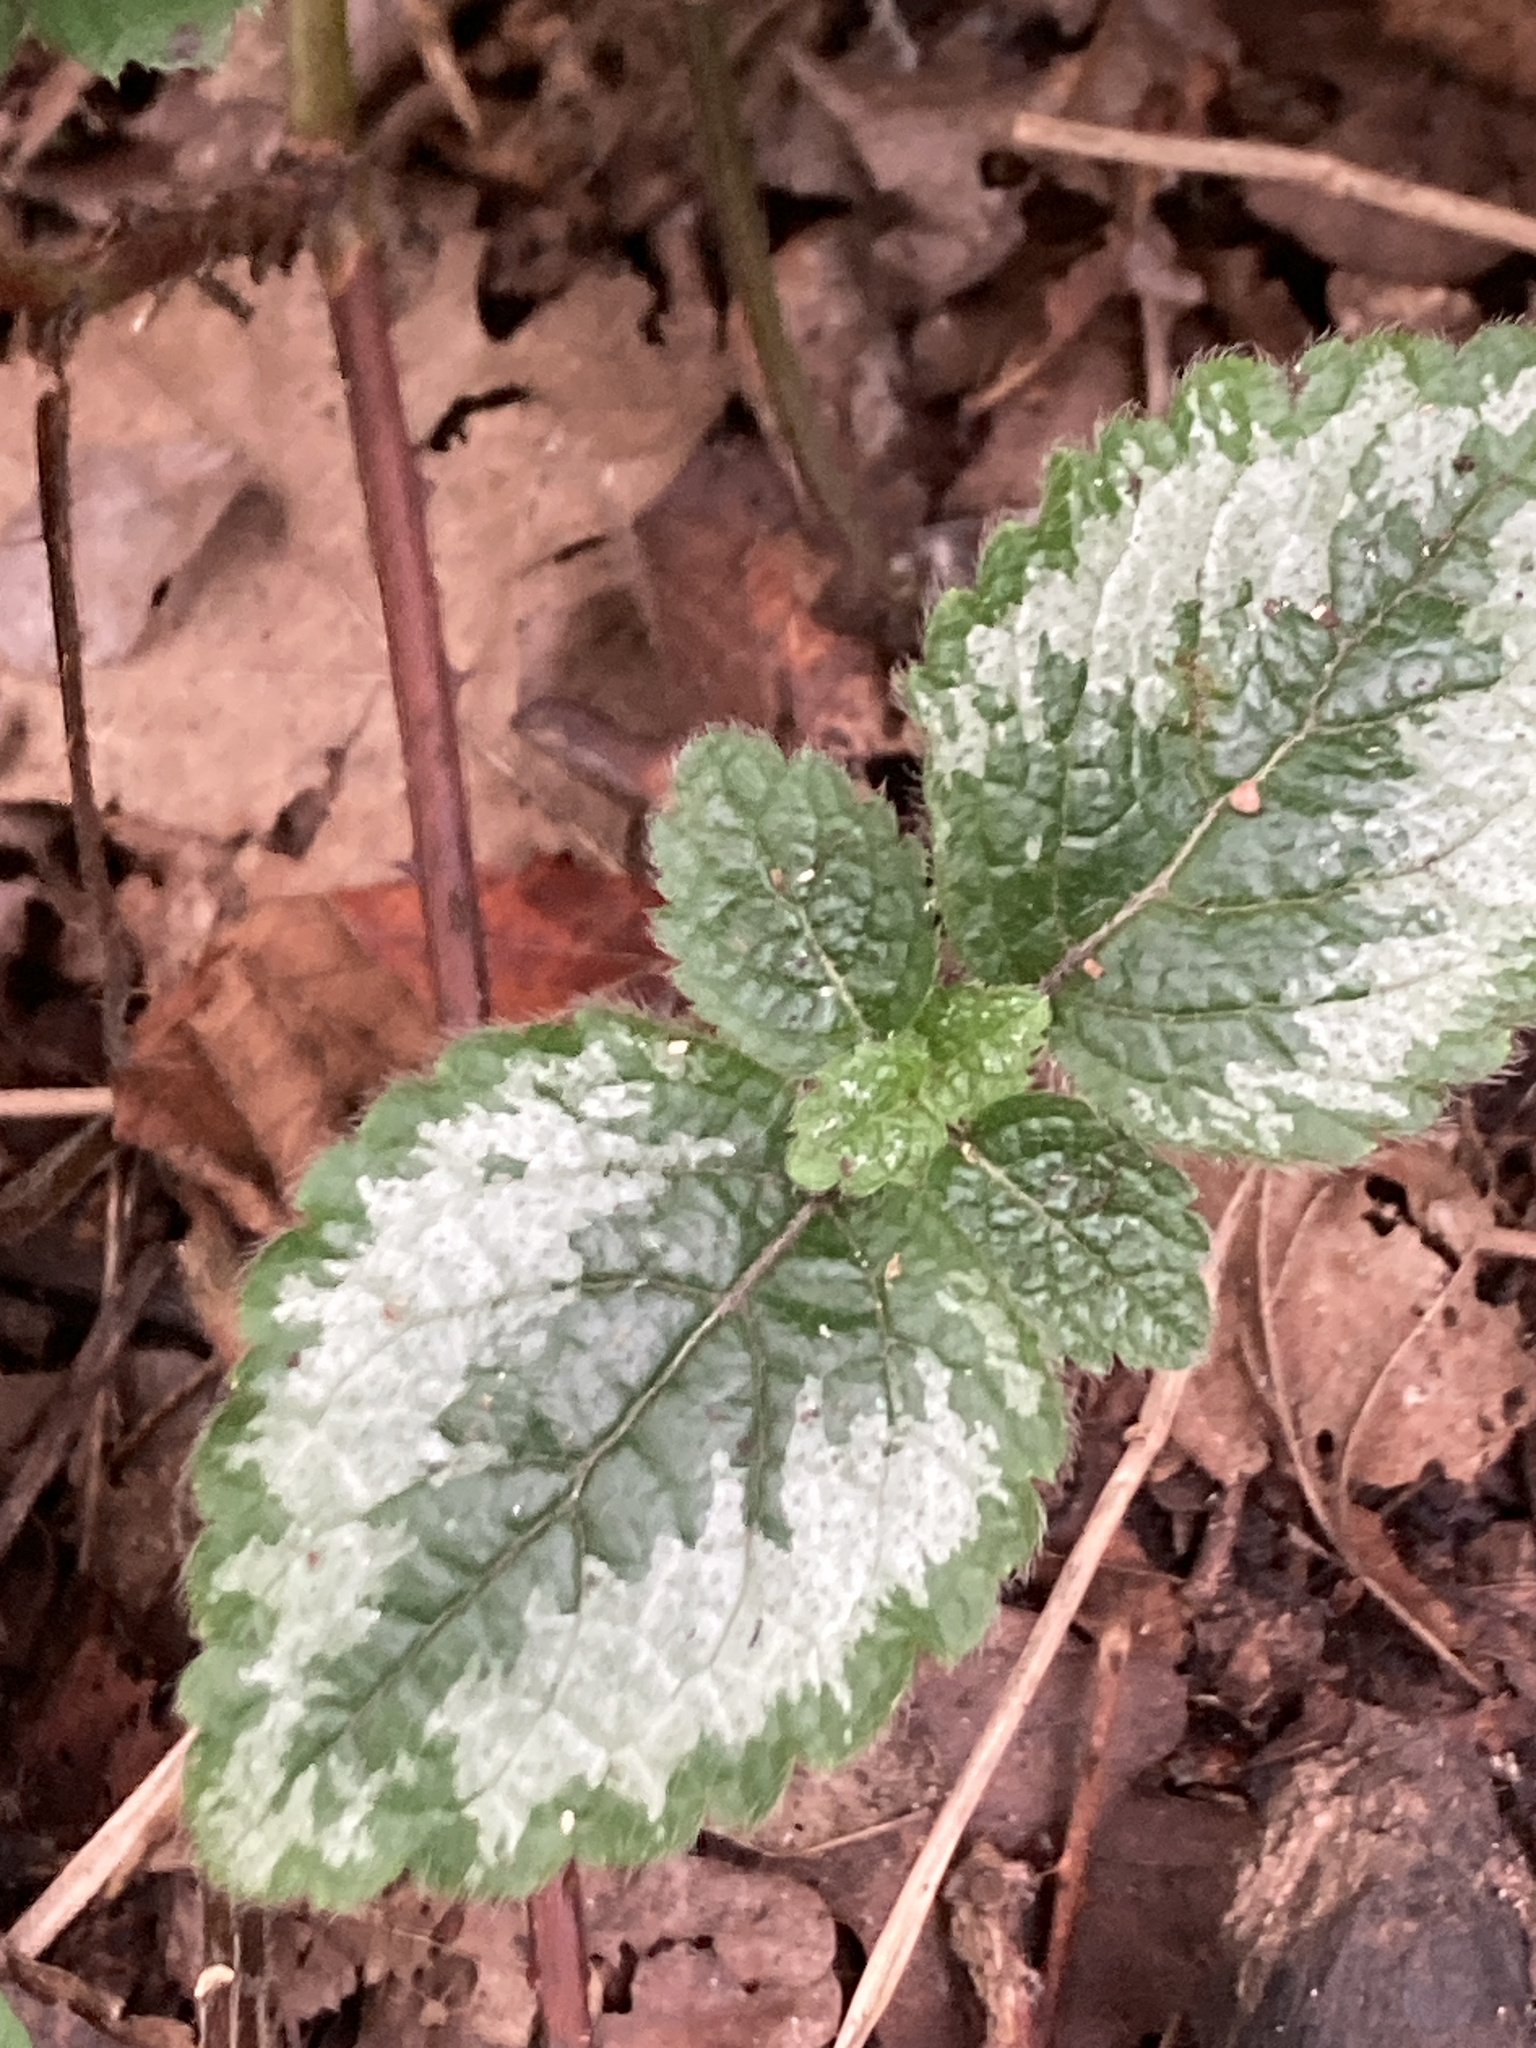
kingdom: Plantae
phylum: Tracheophyta
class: Magnoliopsida
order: Lamiales
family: Lamiaceae
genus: Lamium
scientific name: Lamium galeobdolon
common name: Yellow archangel
